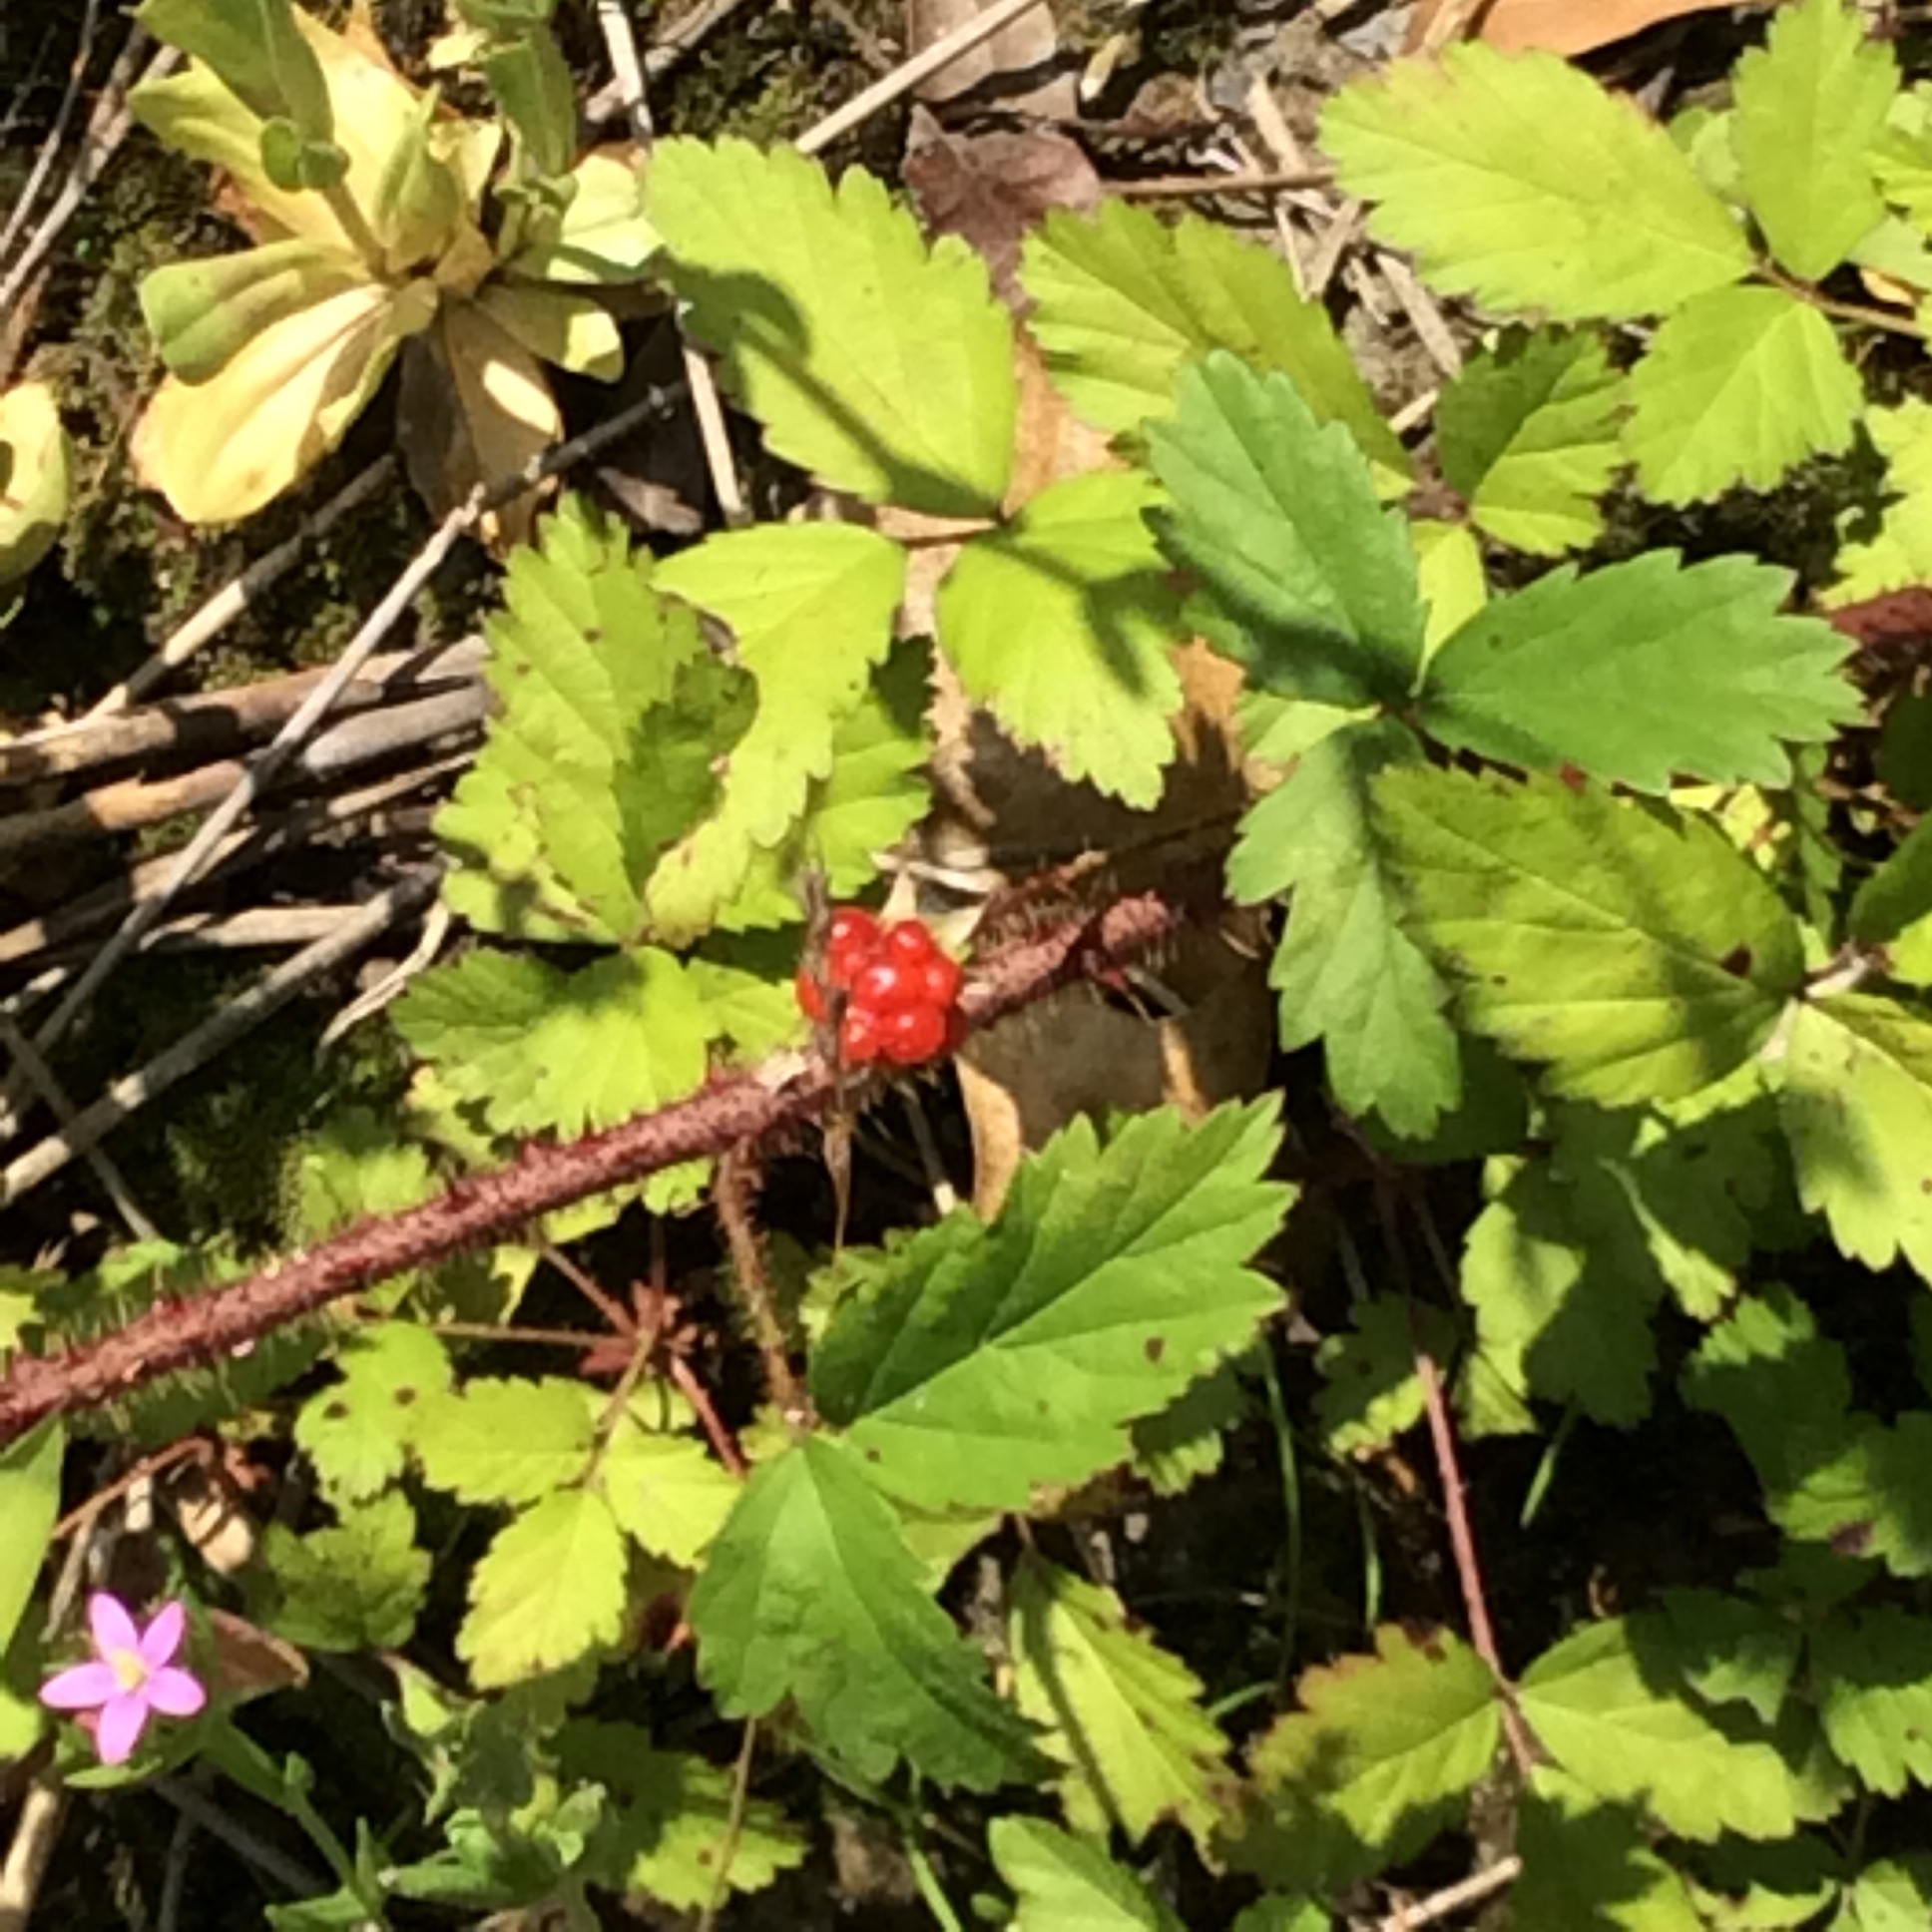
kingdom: Plantae
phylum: Tracheophyta
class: Magnoliopsida
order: Rosales
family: Rosaceae
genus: Rubus
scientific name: Rubus trivialis
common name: Southern dewberry
